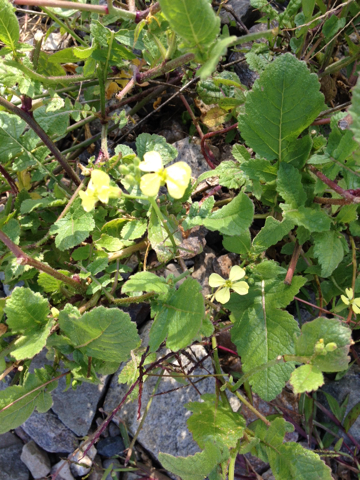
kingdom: Plantae
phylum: Tracheophyta
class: Magnoliopsida
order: Brassicales
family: Brassicaceae
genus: Raphanus
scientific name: Raphanus sativus
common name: Cultivated radish
